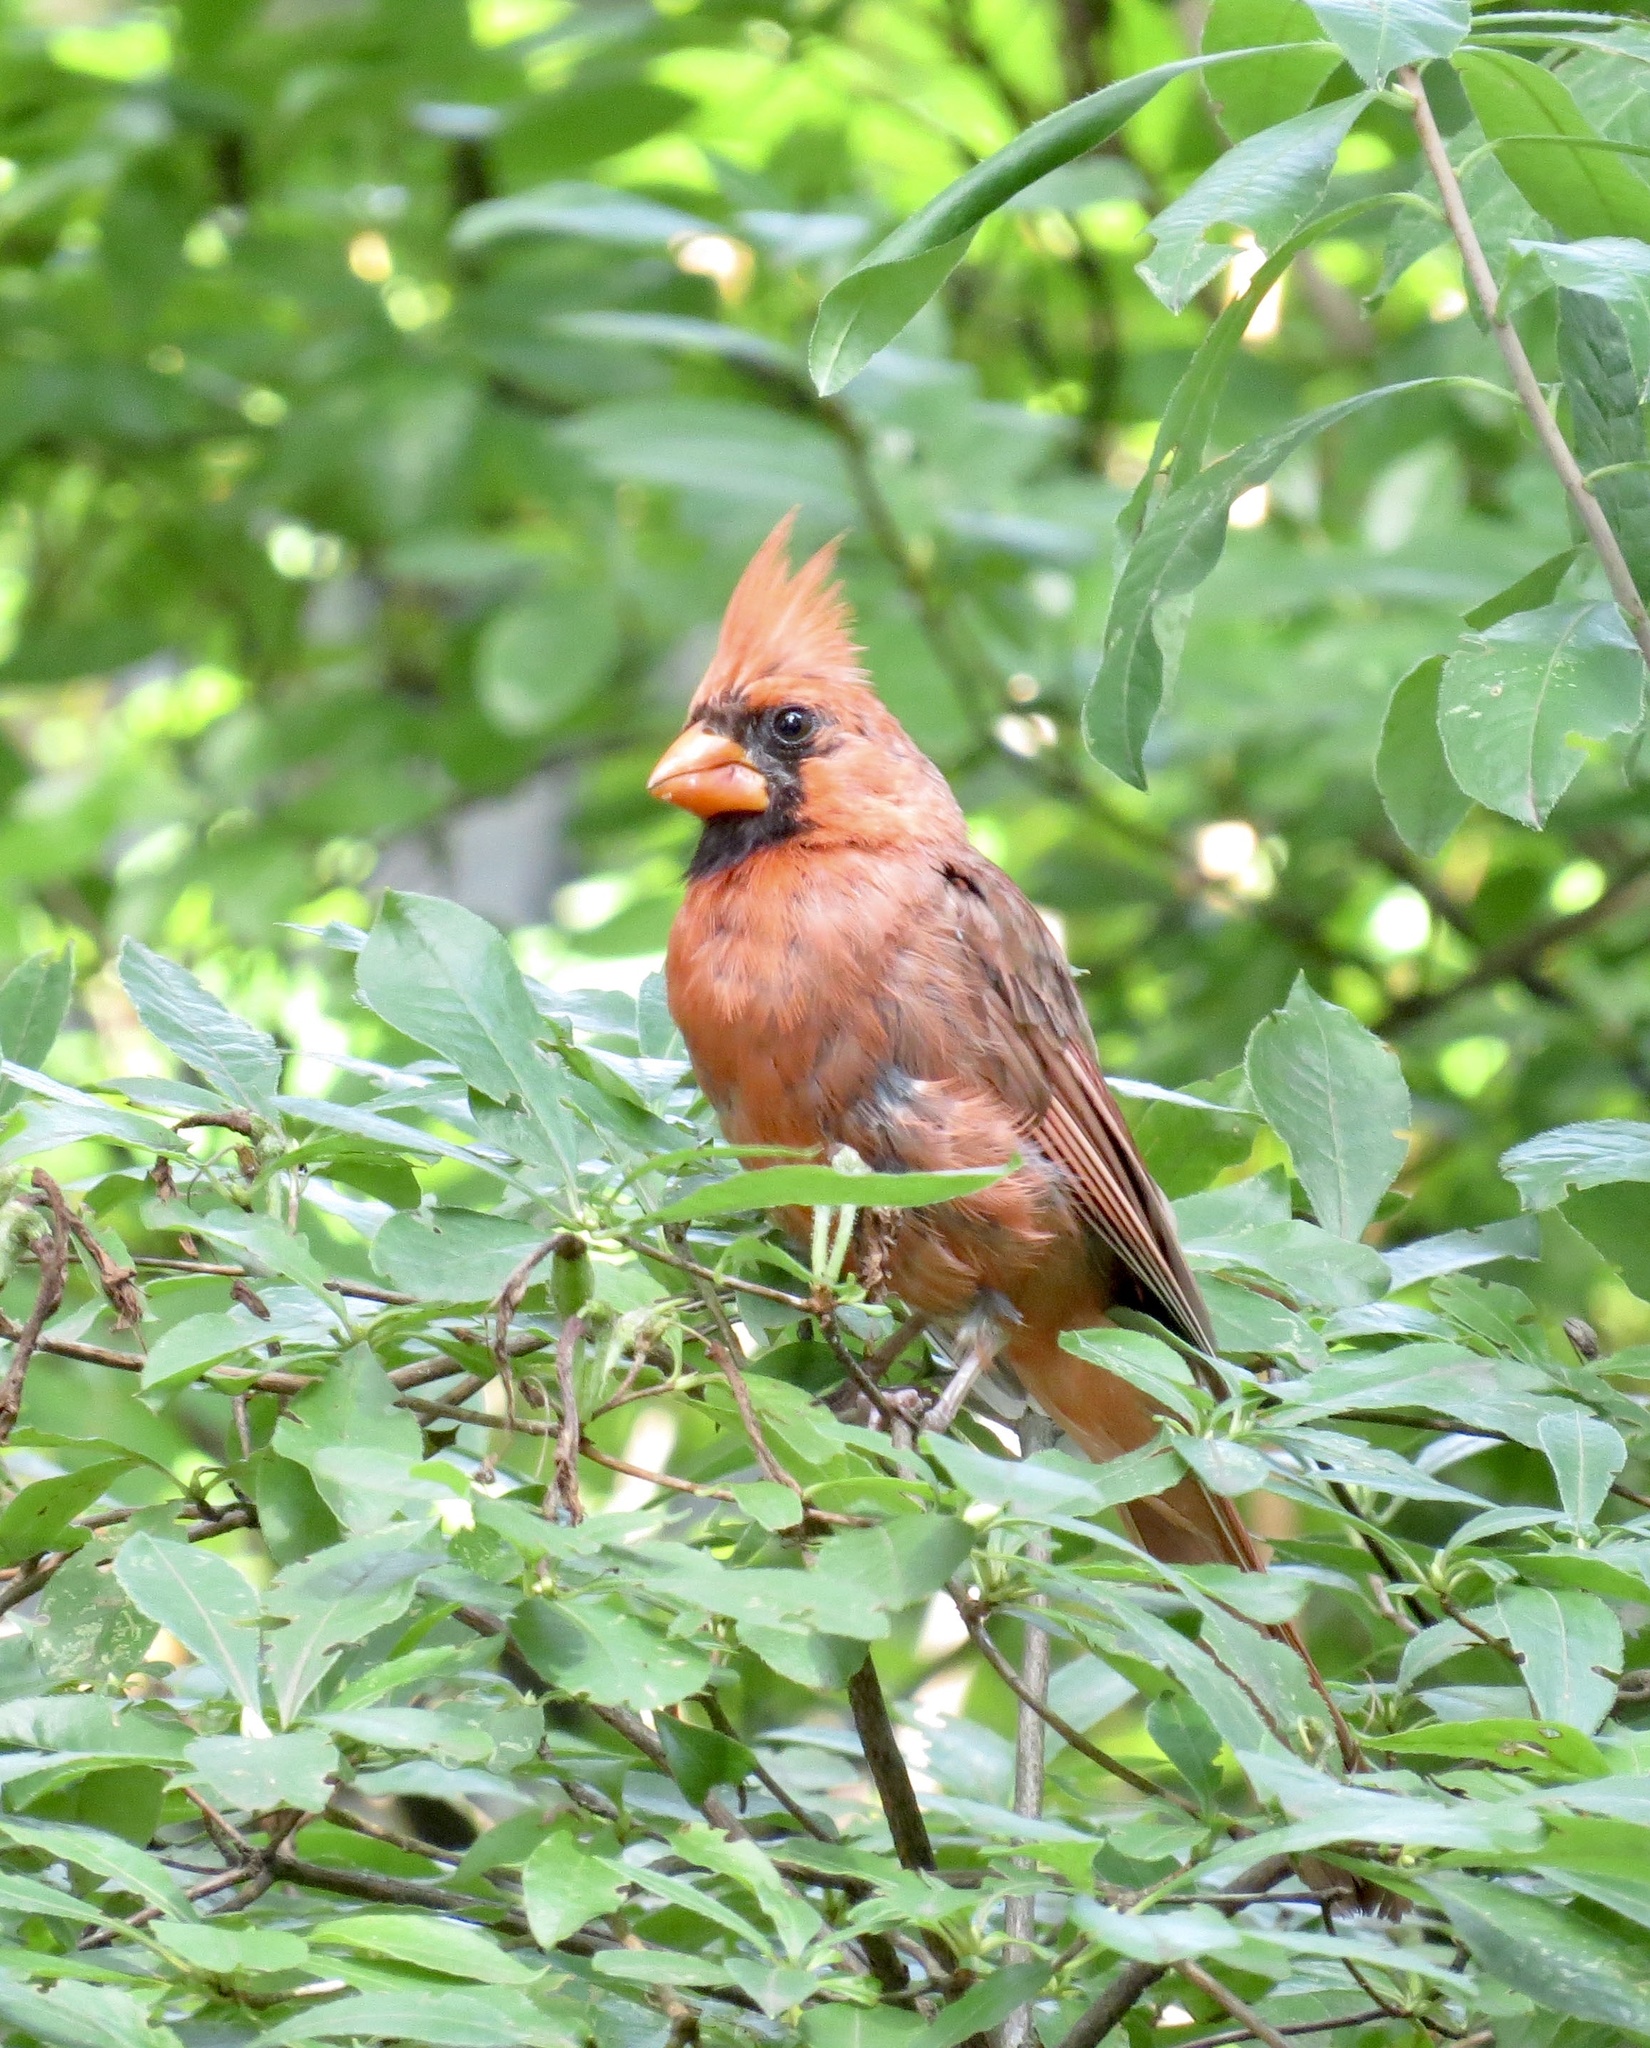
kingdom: Animalia
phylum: Chordata
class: Aves
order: Passeriformes
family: Cardinalidae
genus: Cardinalis
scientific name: Cardinalis cardinalis
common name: Northern cardinal
